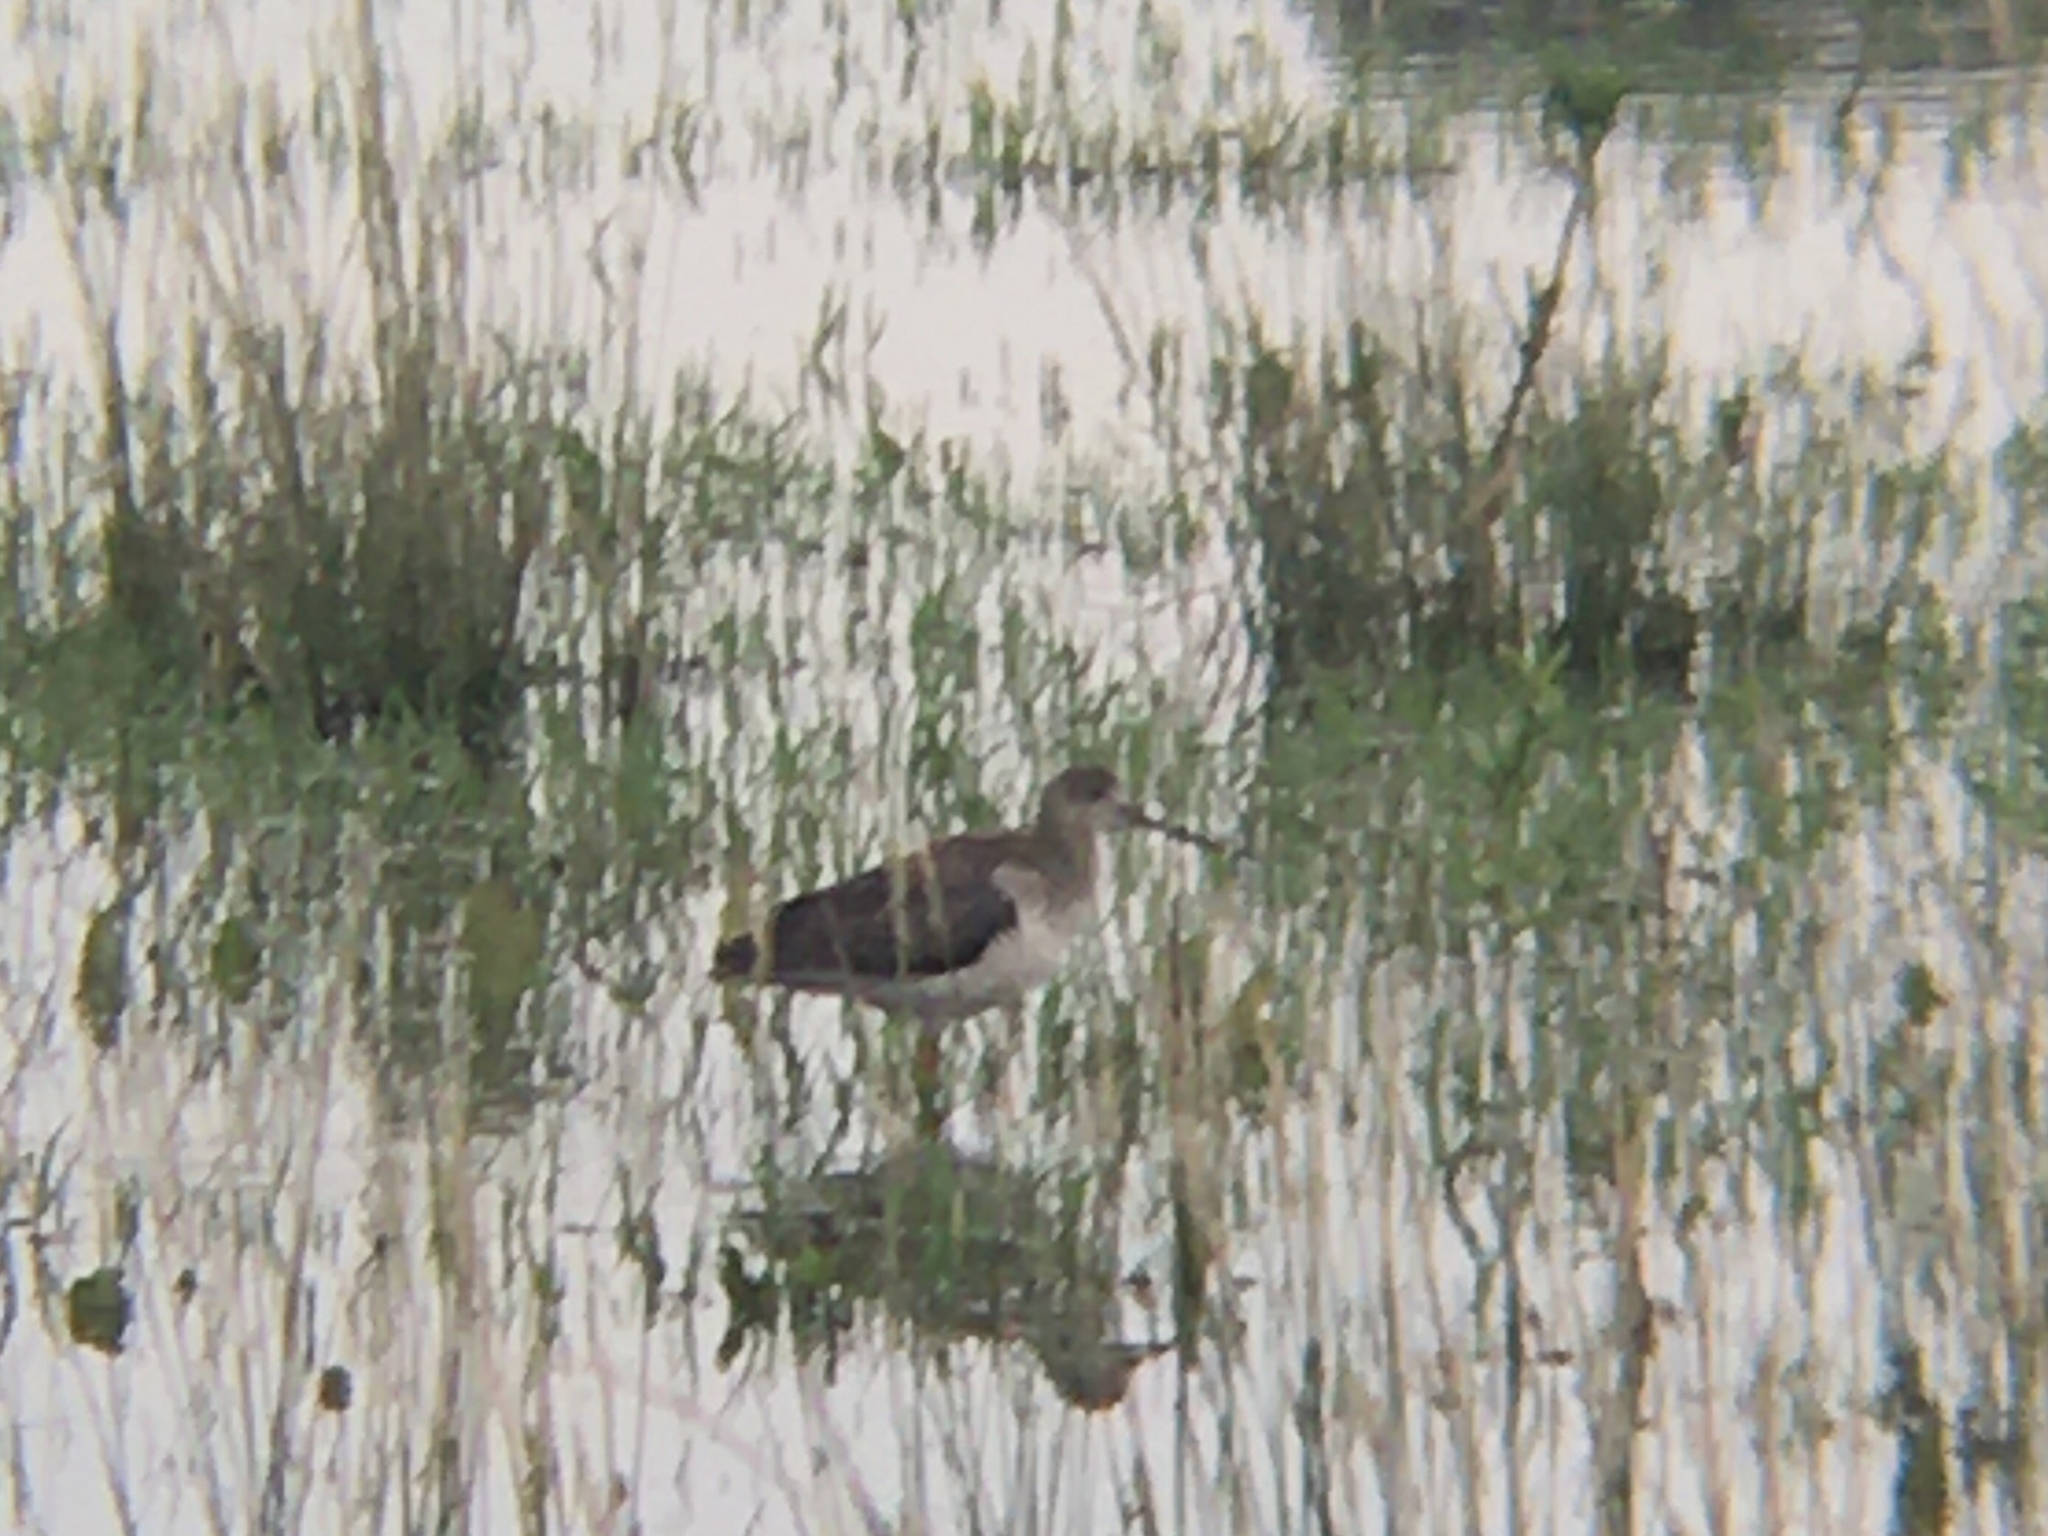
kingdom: Animalia
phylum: Chordata
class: Aves
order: Charadriiformes
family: Scolopacidae
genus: Tringa
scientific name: Tringa melanoleuca
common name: Greater yellowlegs
